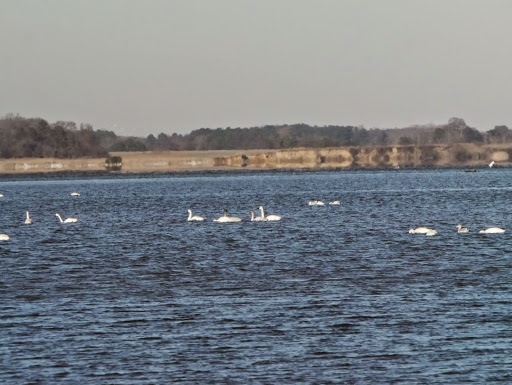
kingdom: Animalia
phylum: Chordata
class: Aves
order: Anseriformes
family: Anatidae
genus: Cygnus
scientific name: Cygnus columbianus
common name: Tundra swan
